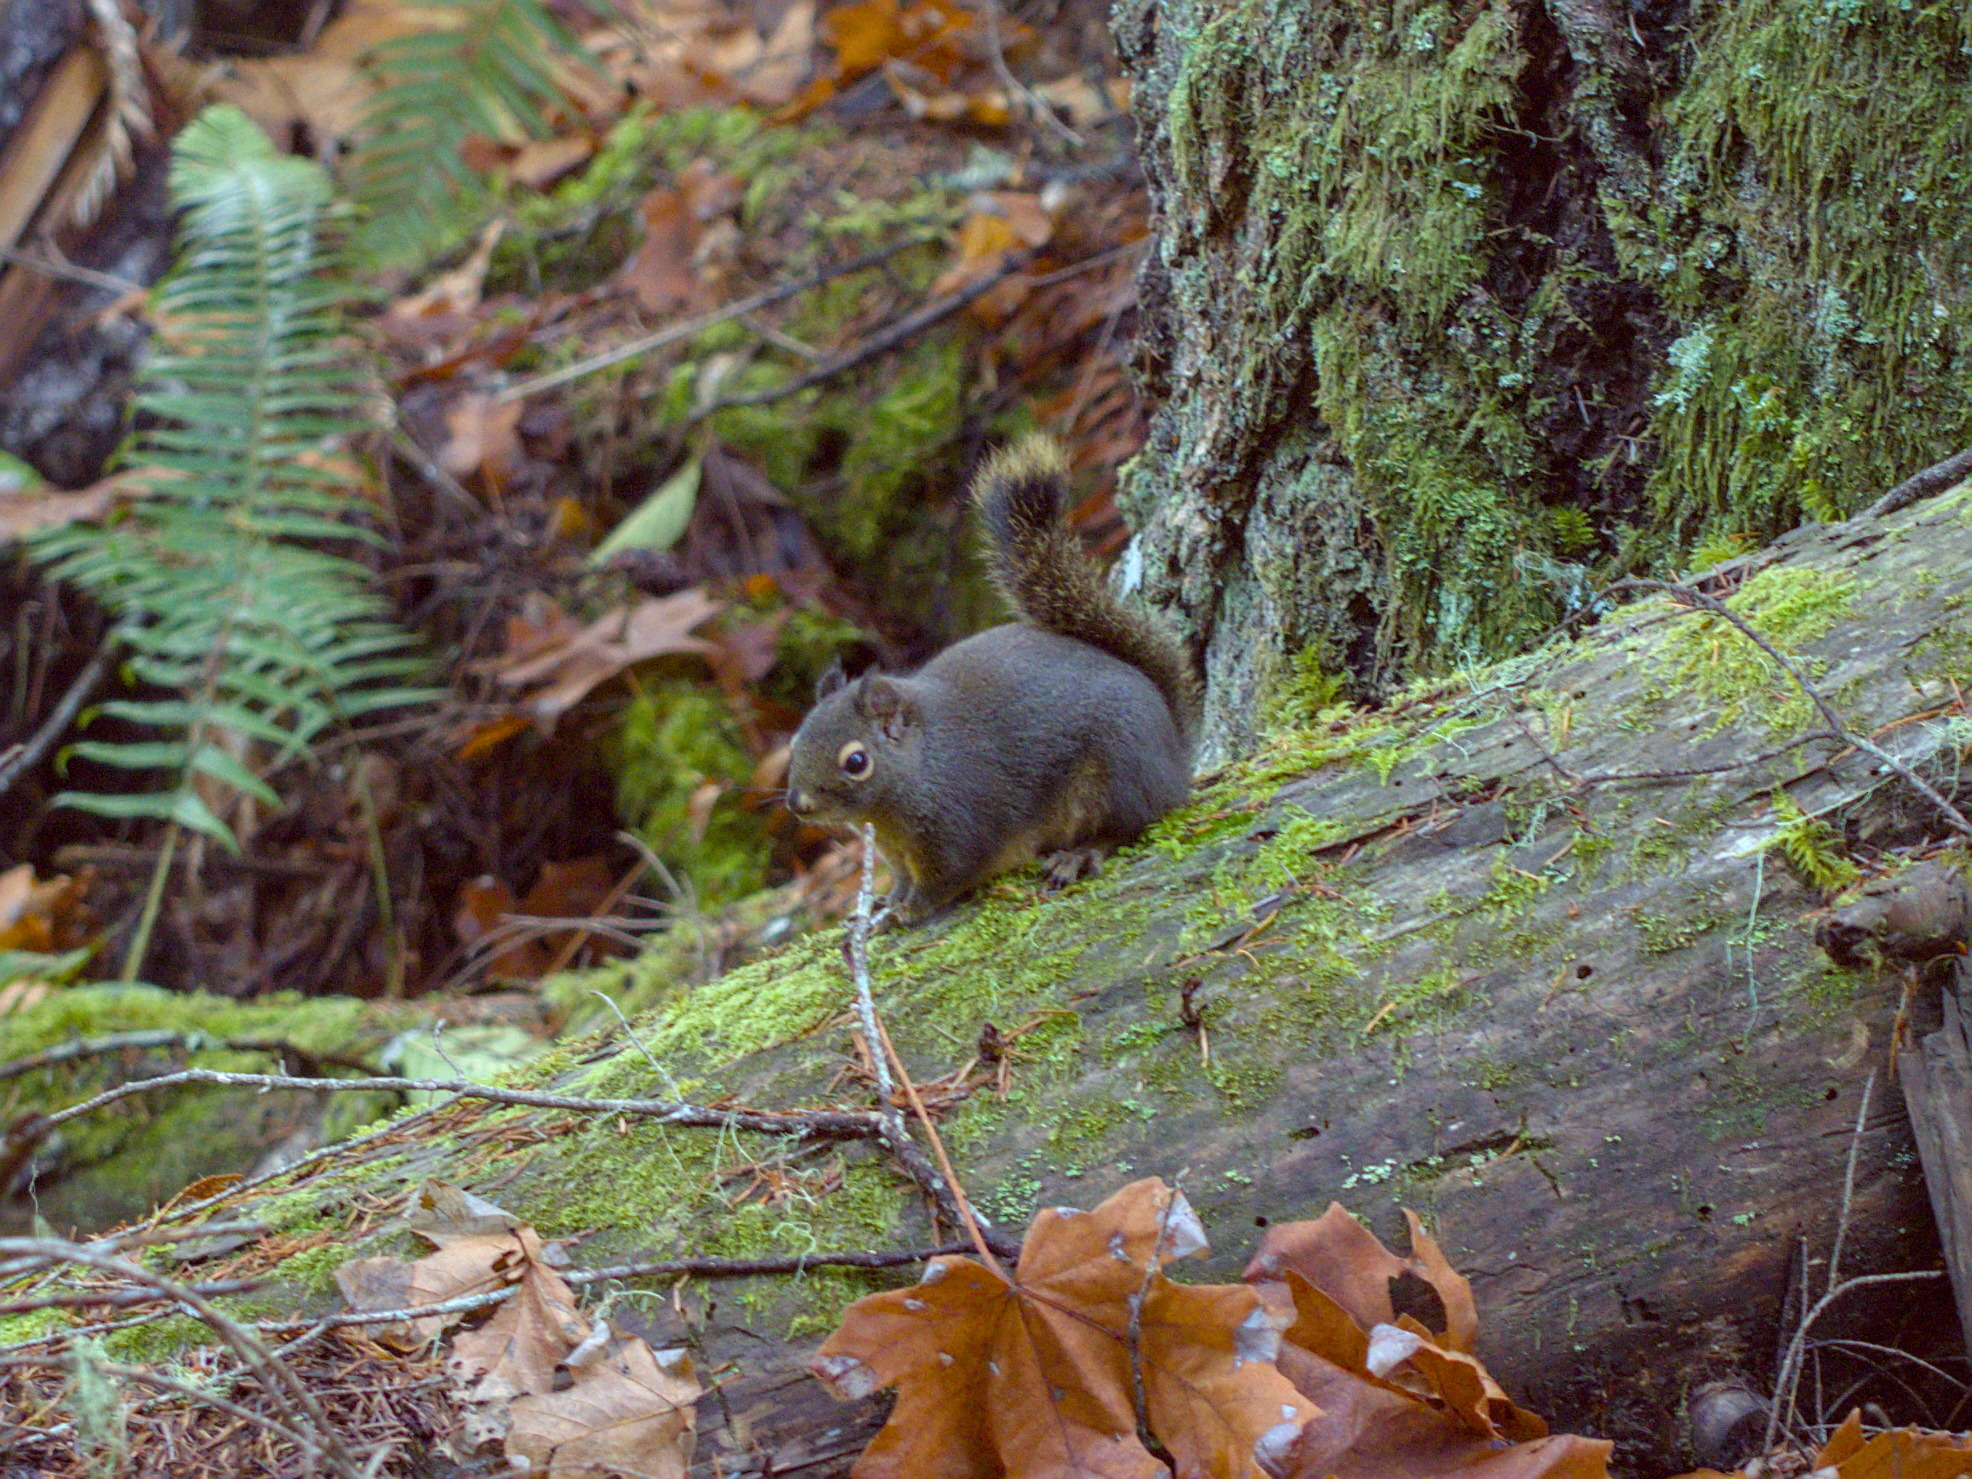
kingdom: Animalia
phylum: Chordata
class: Mammalia
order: Rodentia
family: Sciuridae
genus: Tamiasciurus
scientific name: Tamiasciurus douglasii
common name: Douglas's squirrel
